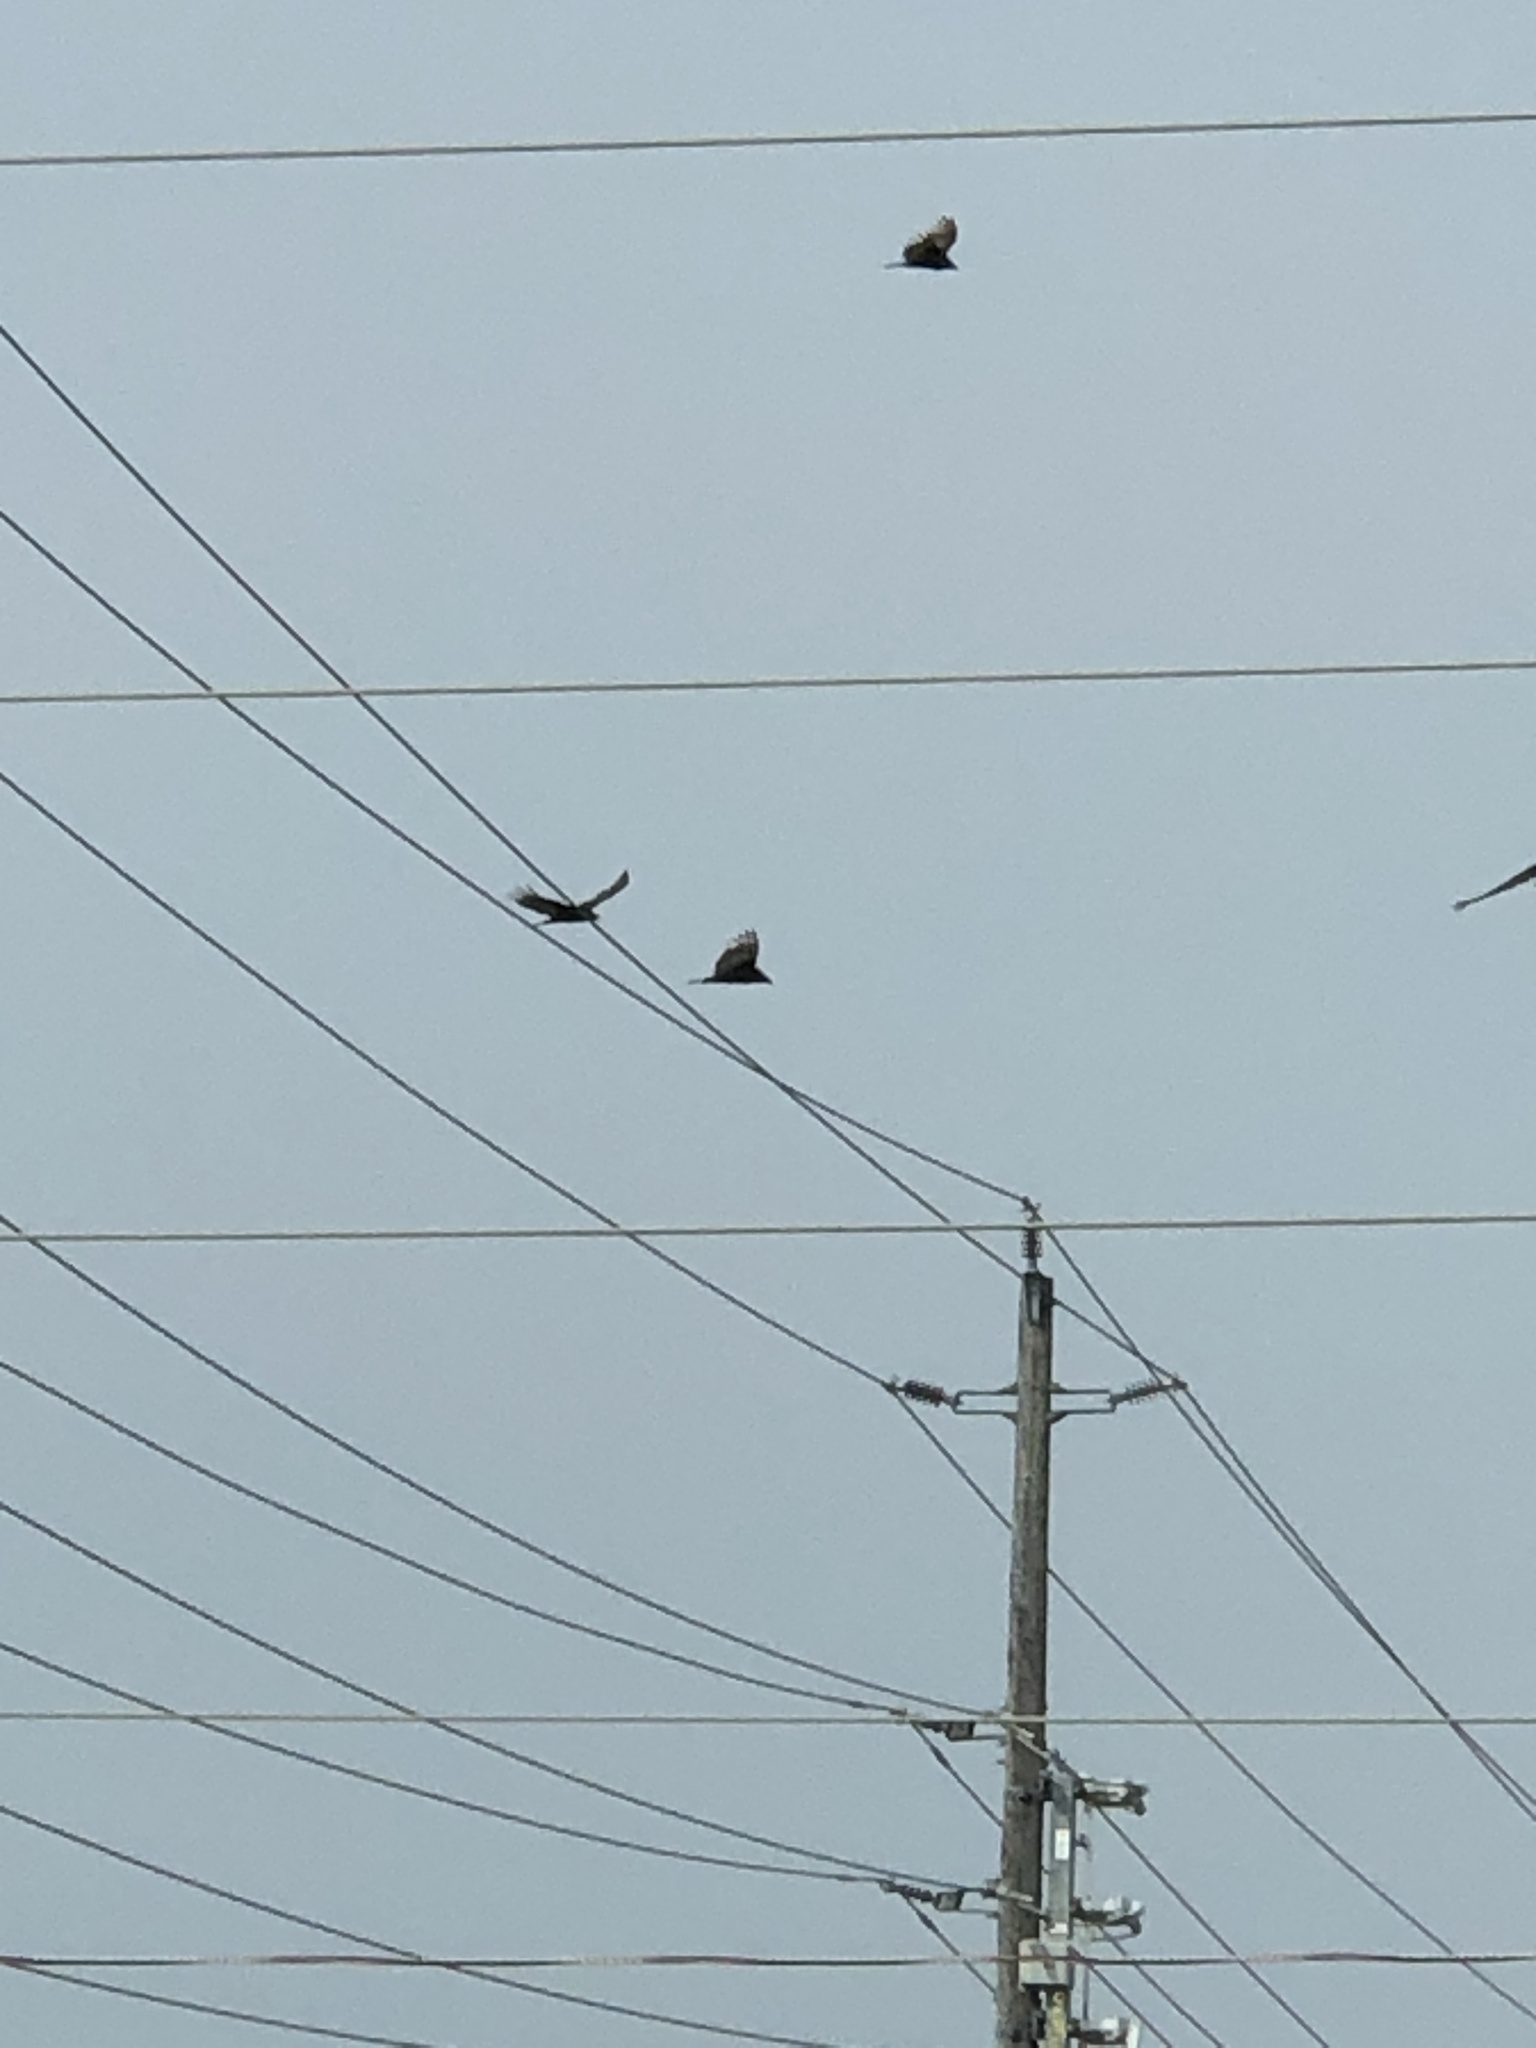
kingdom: Animalia
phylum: Chordata
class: Aves
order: Accipitriformes
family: Cathartidae
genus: Cathartes
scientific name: Cathartes aura
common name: Turkey vulture
